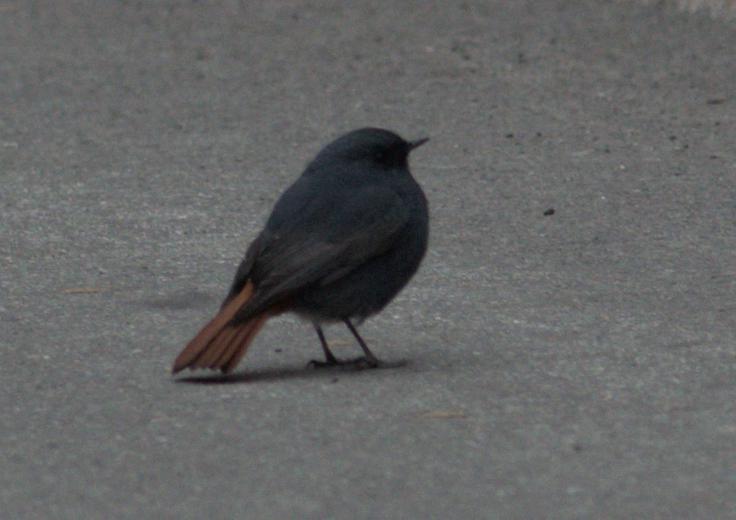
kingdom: Animalia
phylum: Chordata
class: Aves
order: Passeriformes
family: Muscicapidae
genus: Phoenicurus
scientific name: Phoenicurus fuliginosus
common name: Plumbeous water redstart
